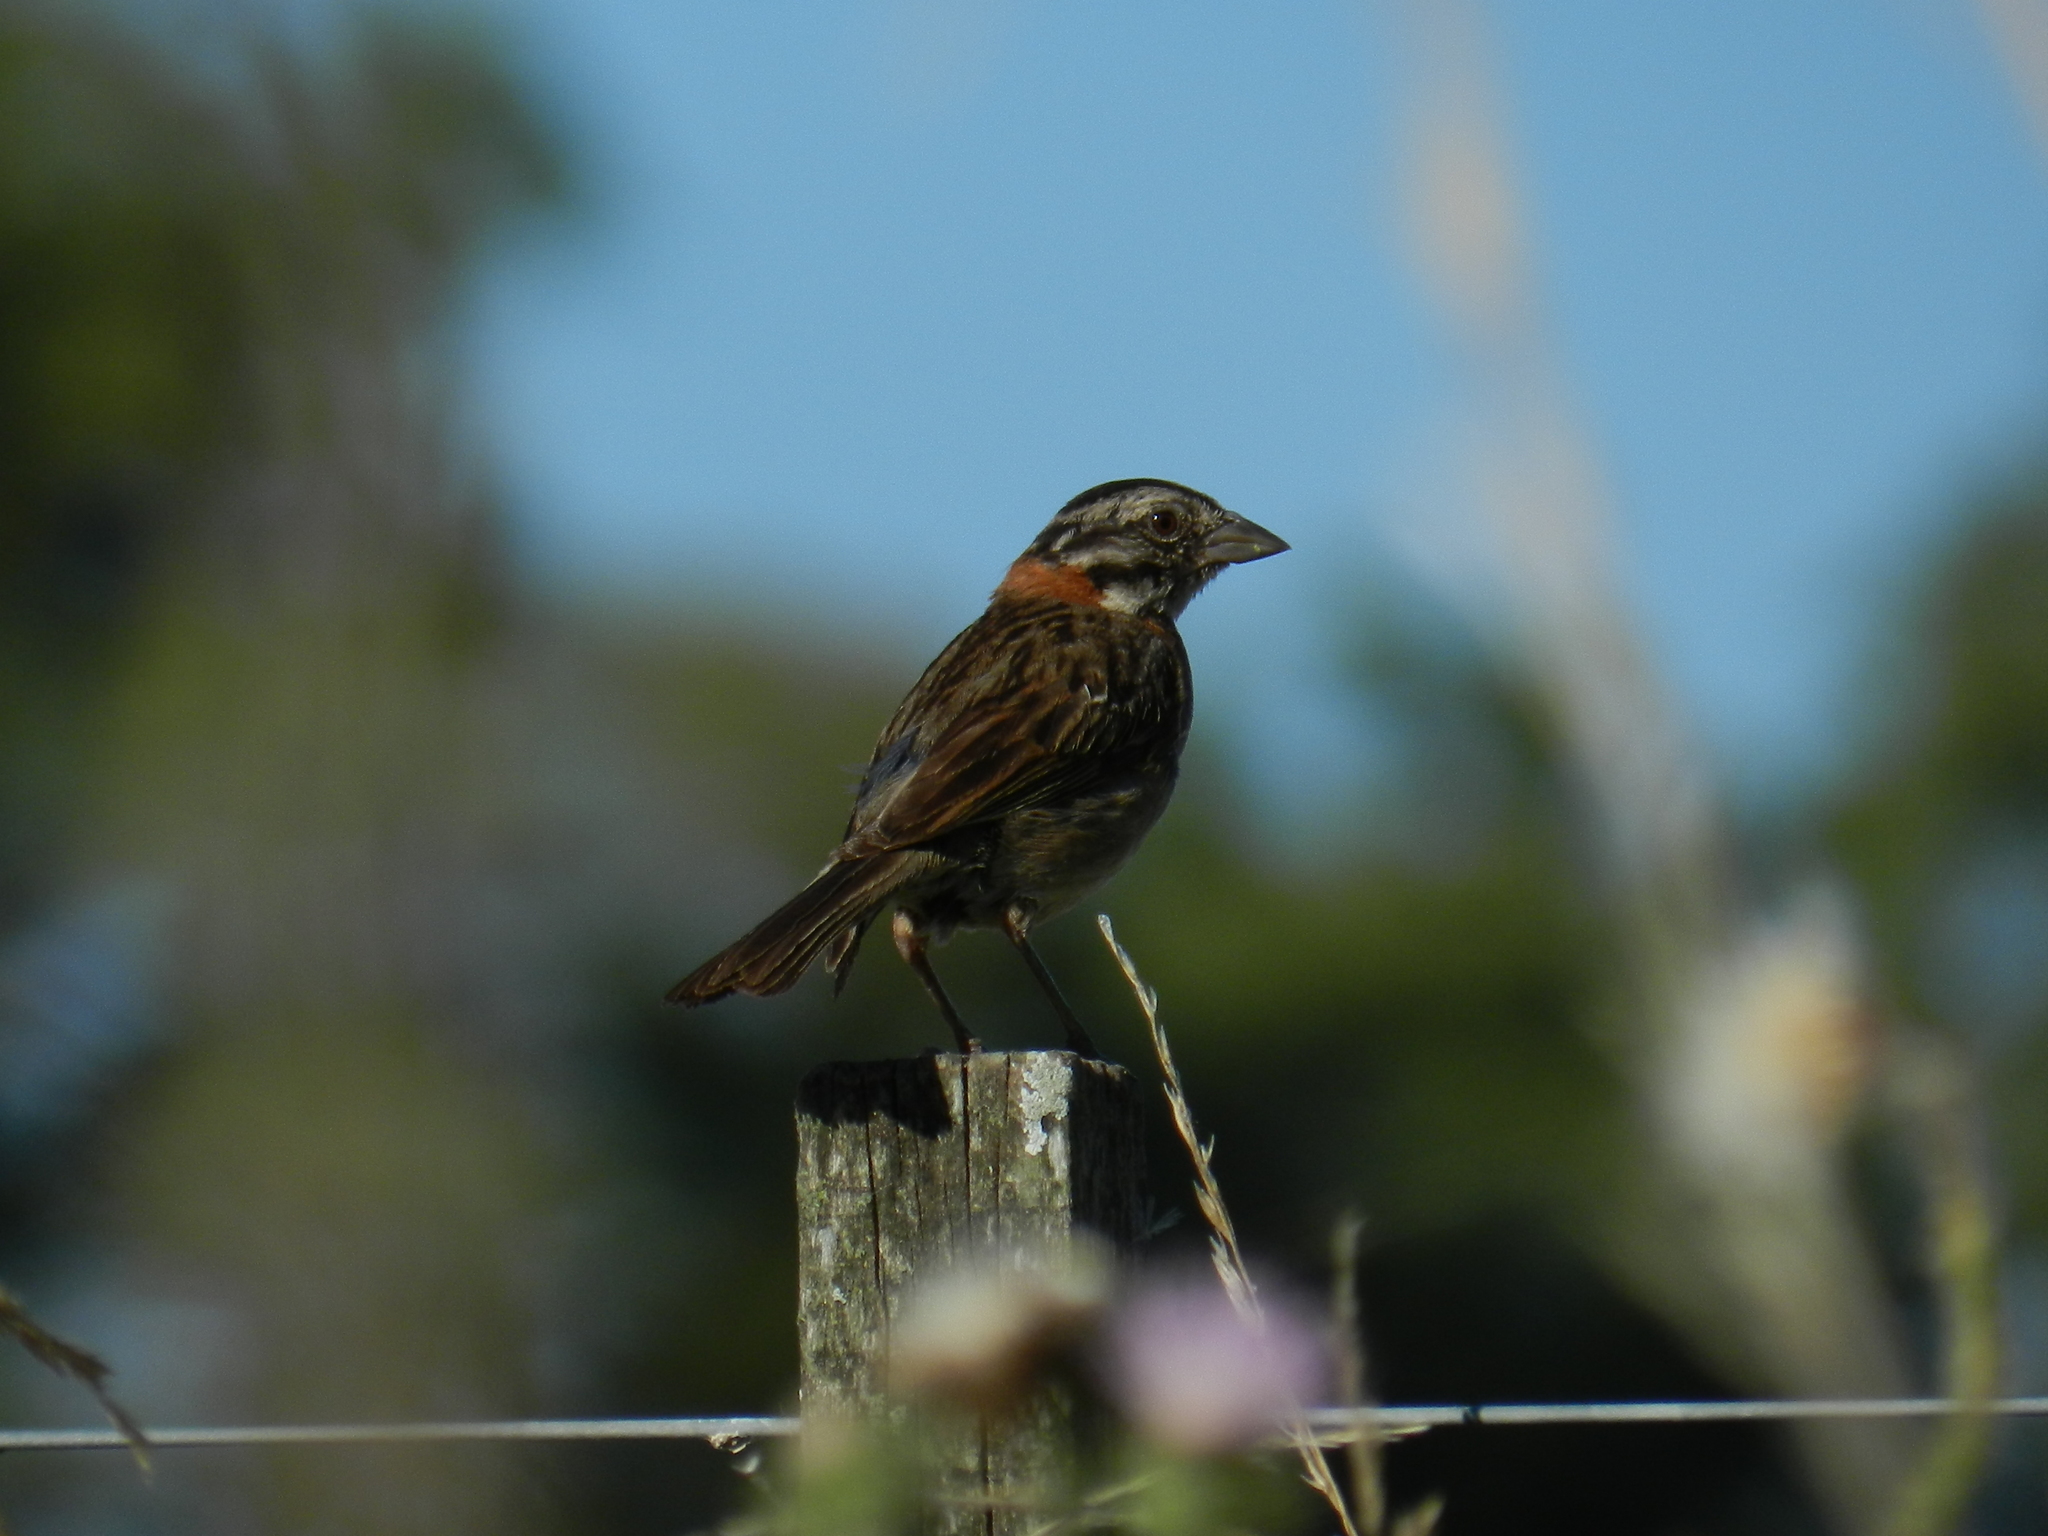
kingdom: Animalia
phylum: Chordata
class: Aves
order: Passeriformes
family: Passerellidae
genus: Zonotrichia
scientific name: Zonotrichia capensis
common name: Rufous-collared sparrow
